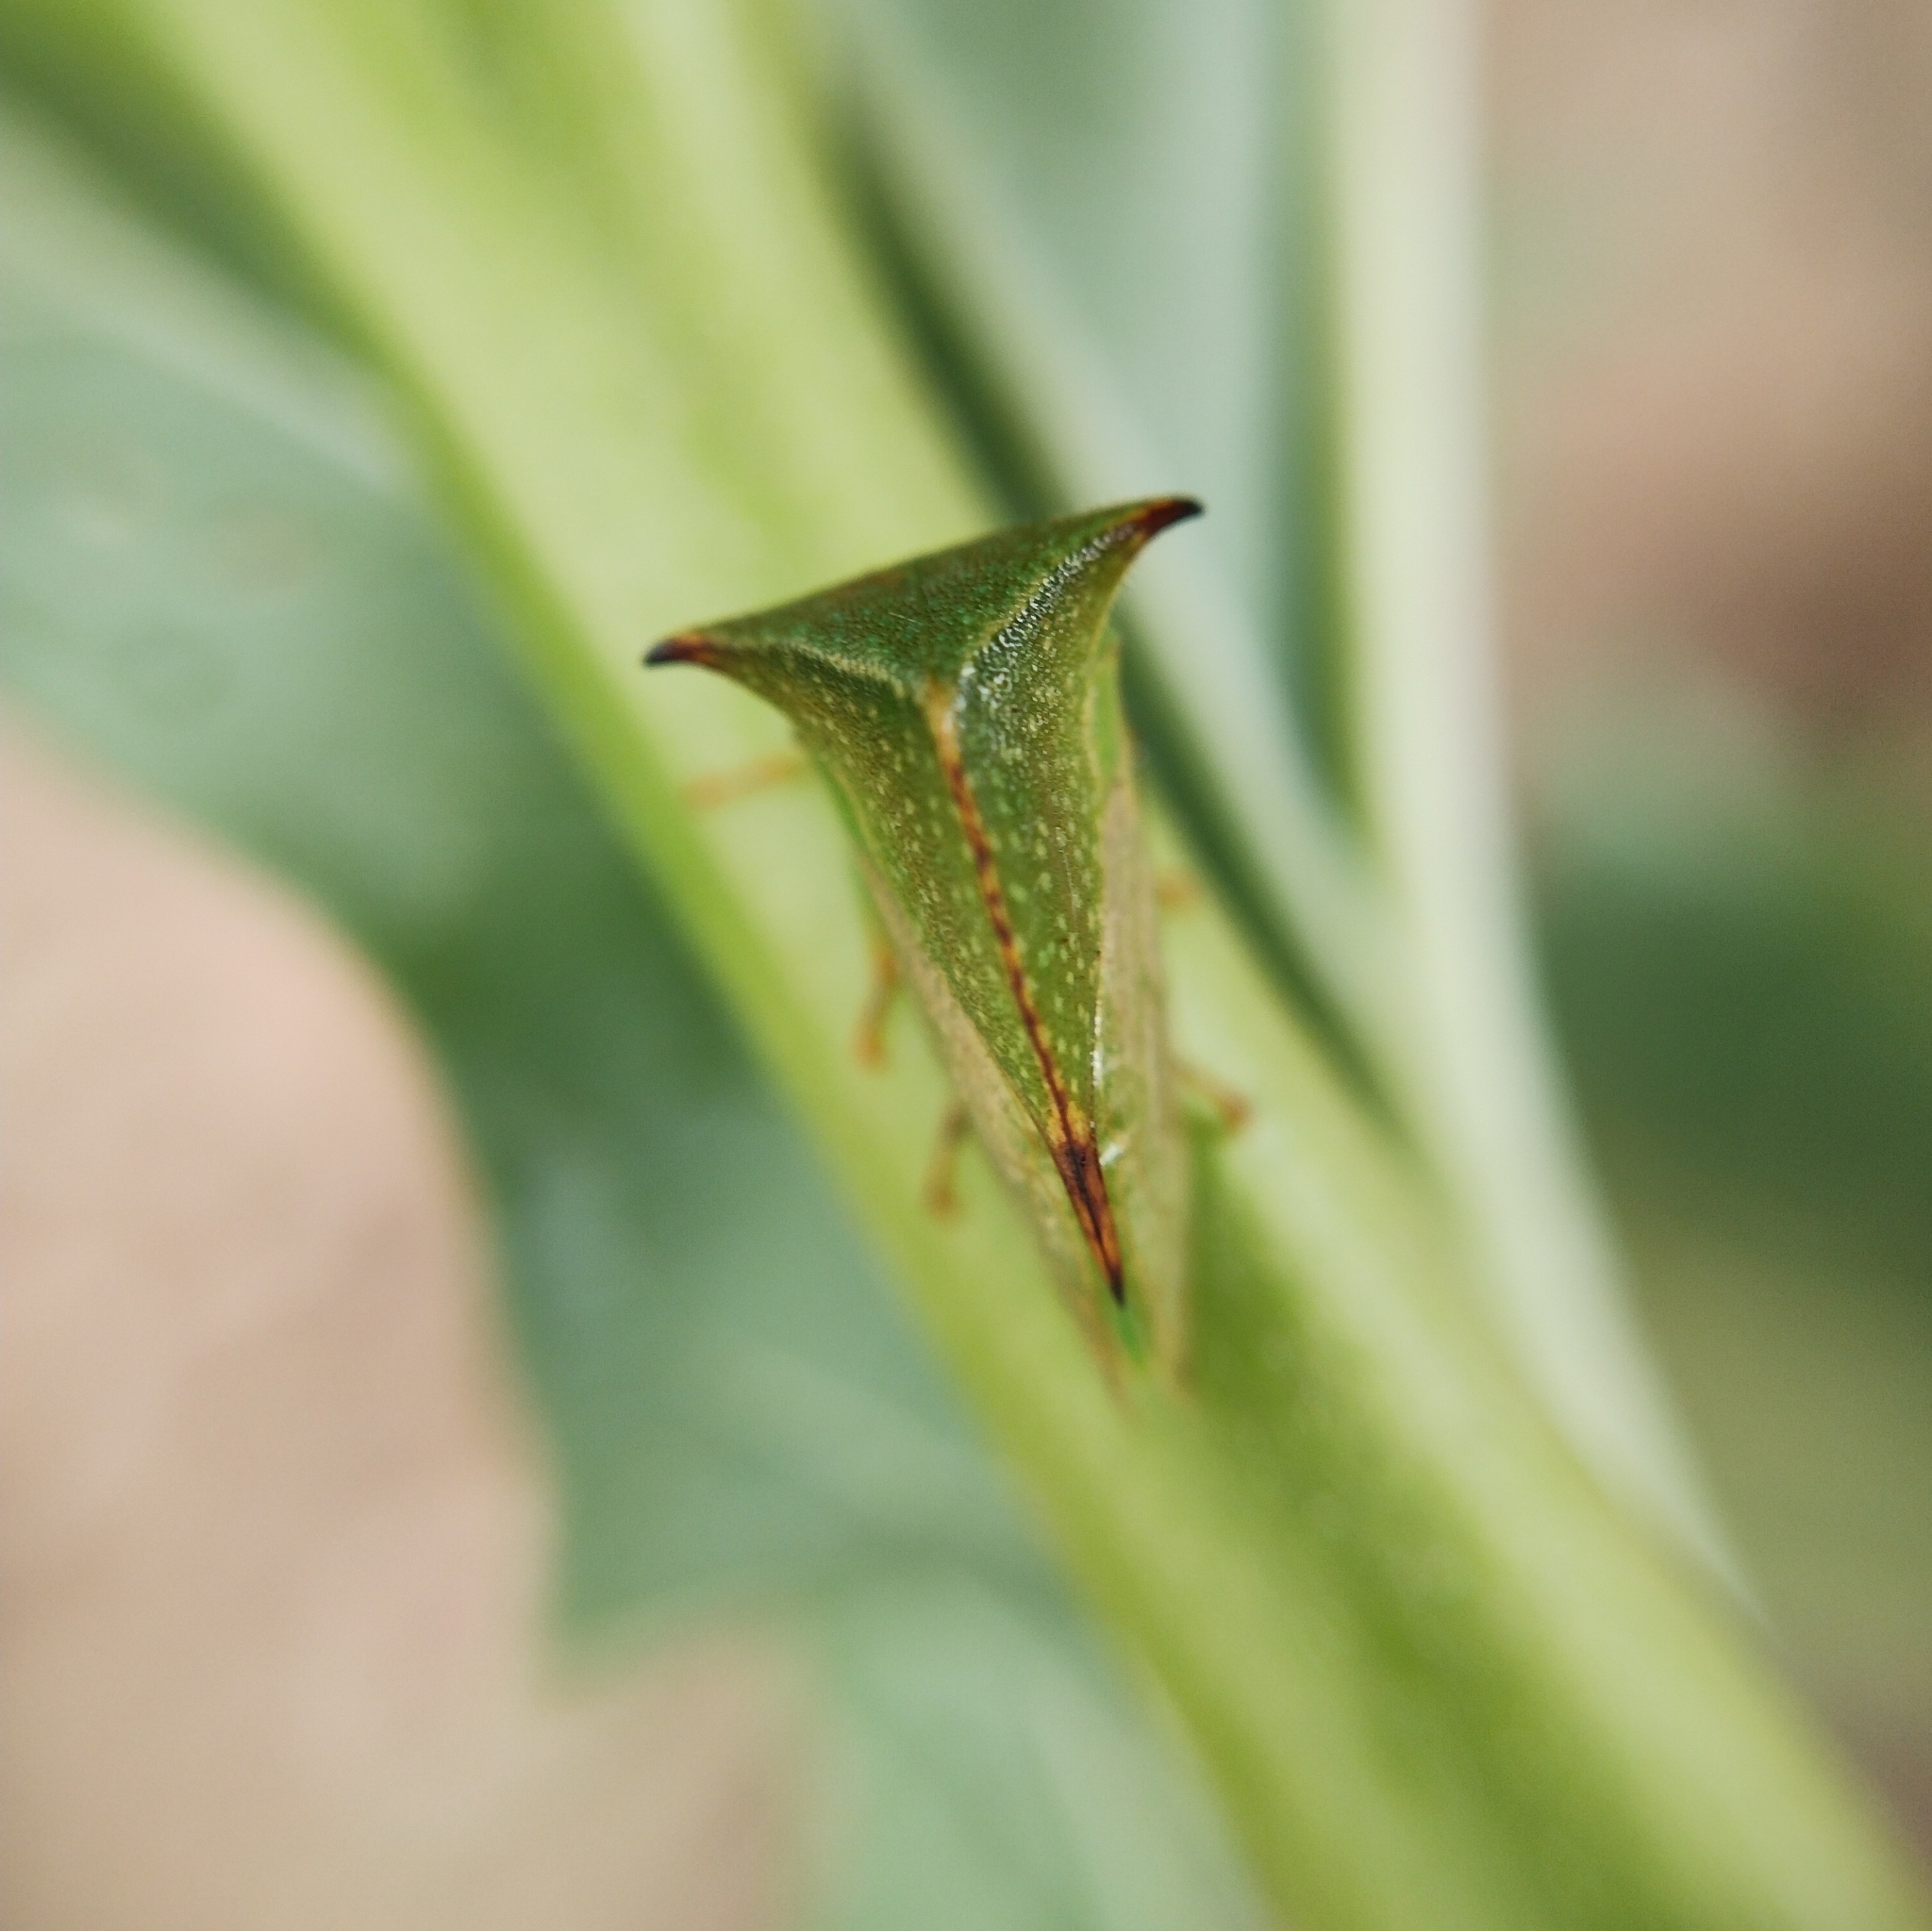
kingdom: Animalia
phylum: Arthropoda
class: Insecta
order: Hemiptera
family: Membracidae
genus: Stictocephala
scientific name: Stictocephala bisonia
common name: American buffalo treehopper
